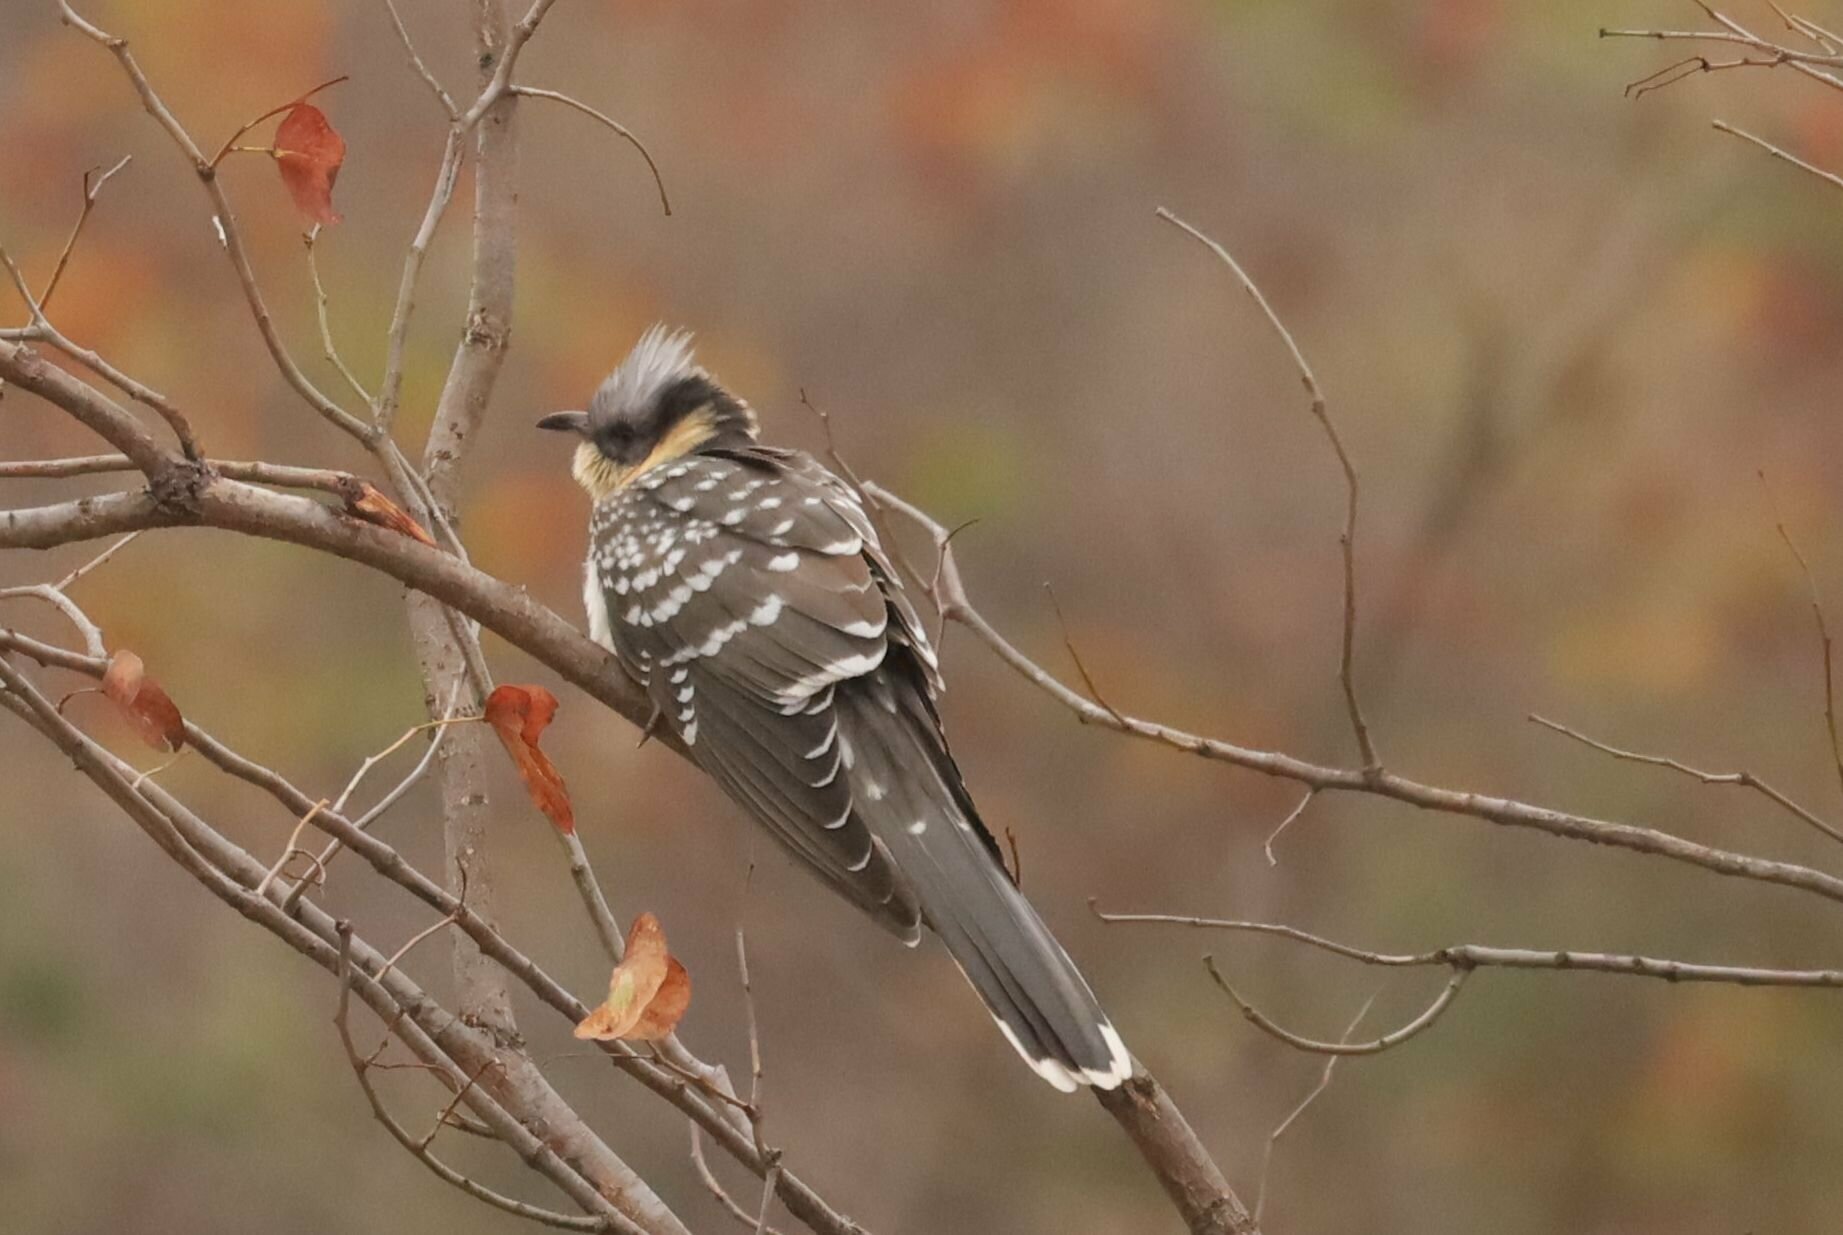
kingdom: Animalia
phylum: Chordata
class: Aves
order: Cuculiformes
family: Cuculidae
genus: Clamator
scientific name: Clamator glandarius
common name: Great spotted cuckoo
